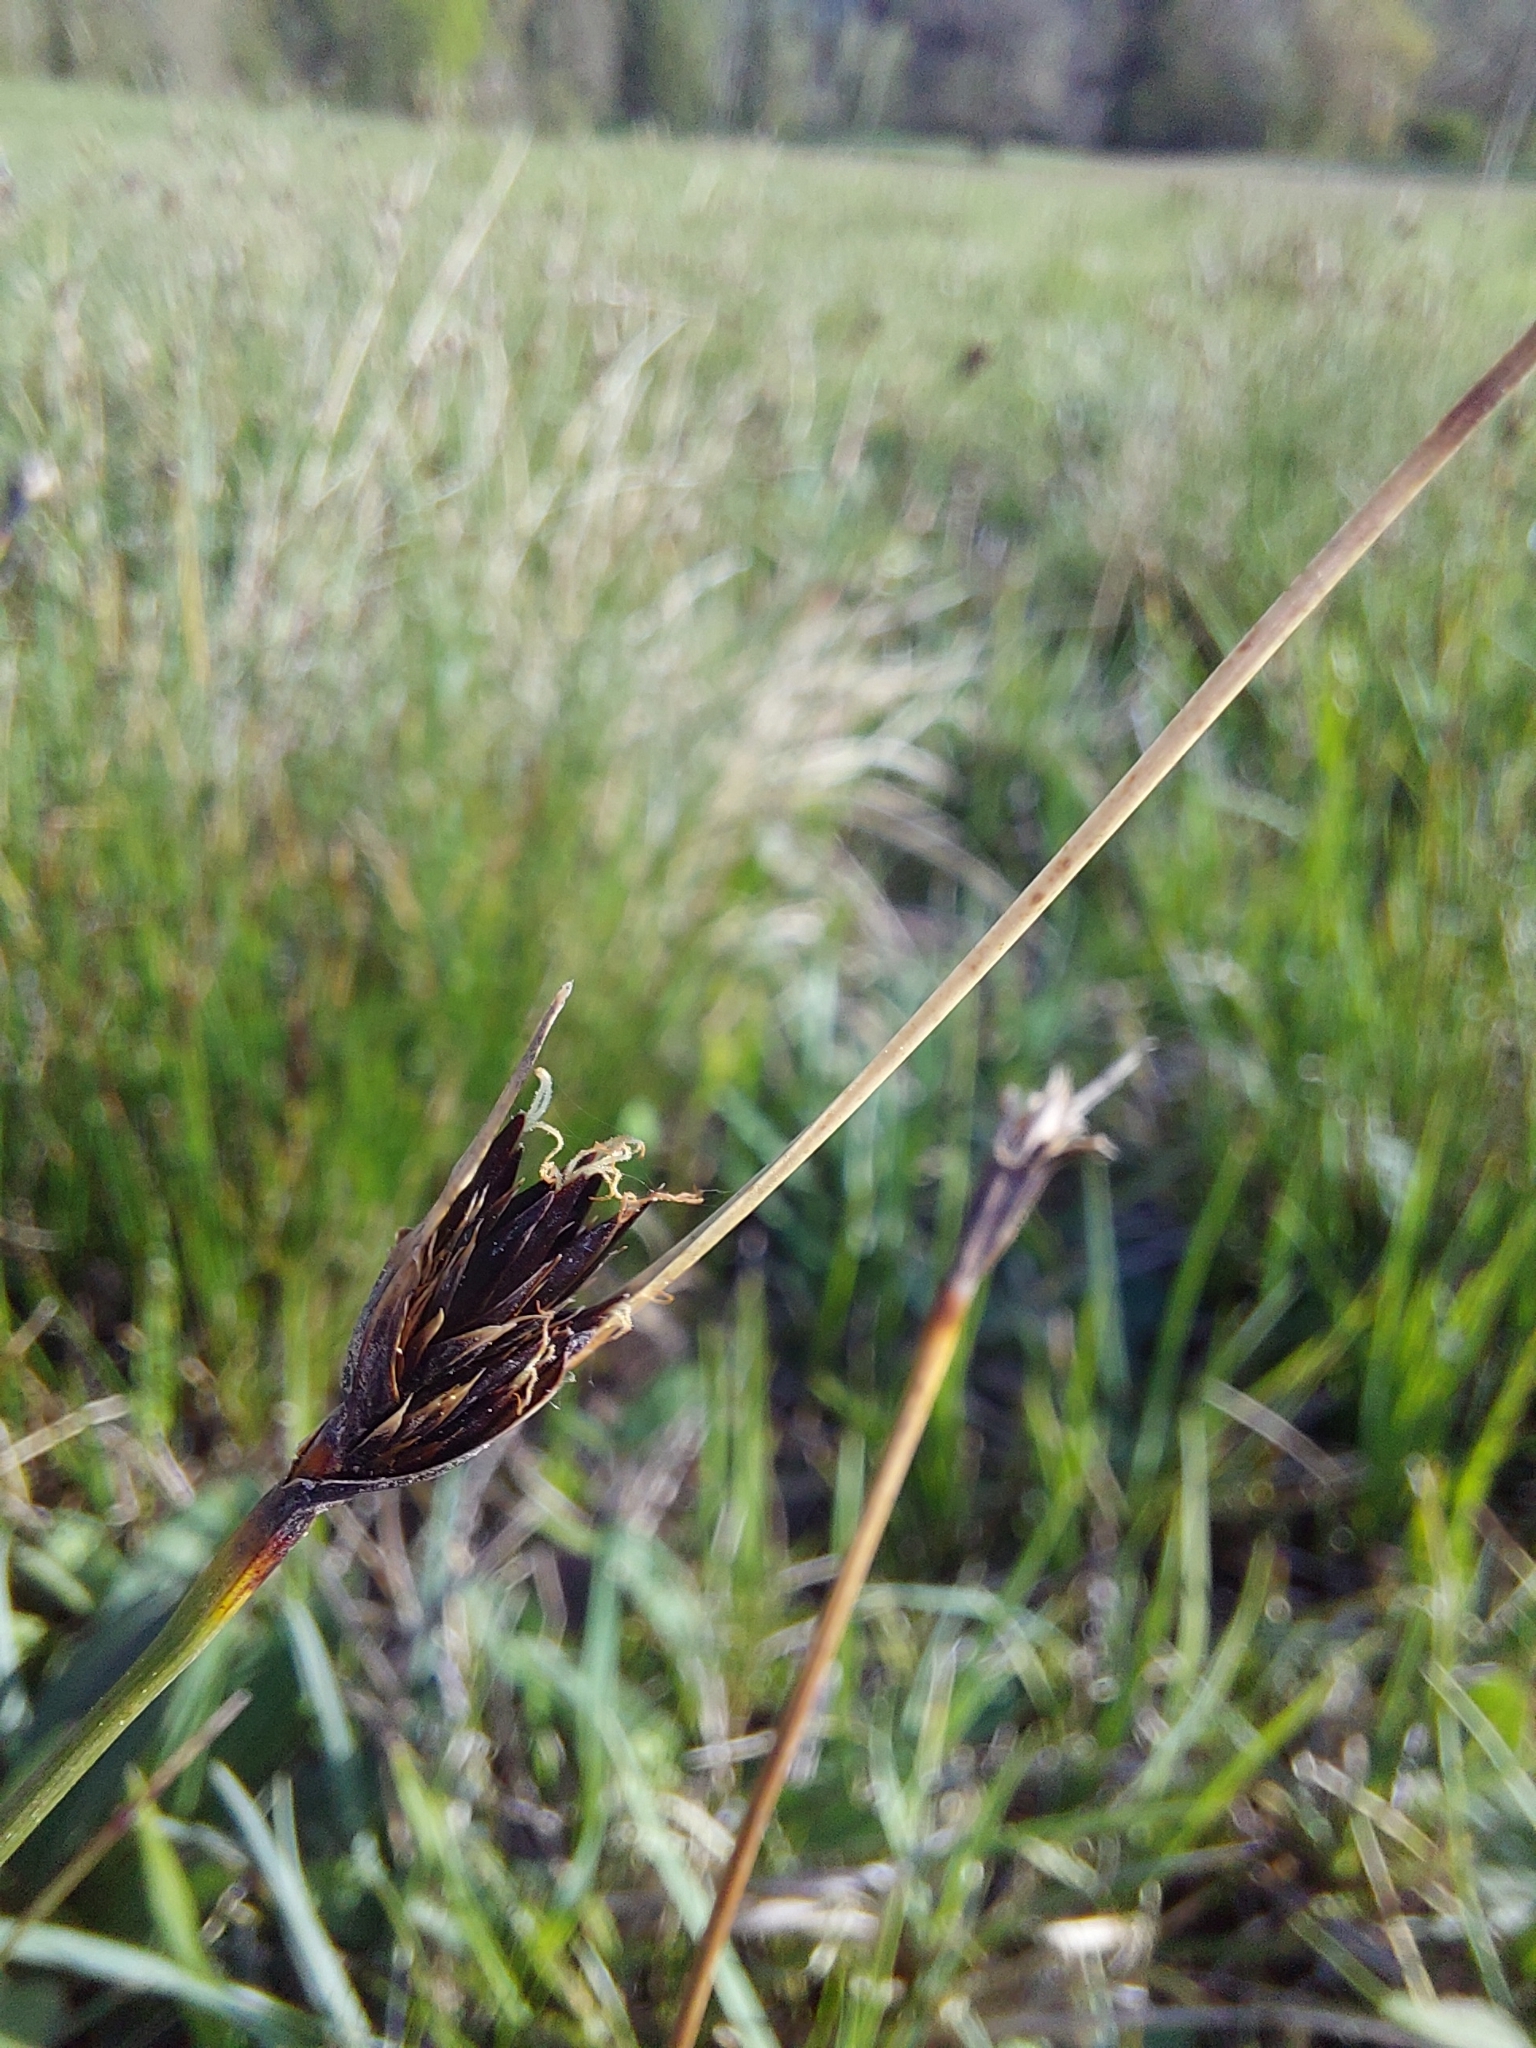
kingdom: Plantae
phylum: Tracheophyta
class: Liliopsida
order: Poales
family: Cyperaceae
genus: Schoenus
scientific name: Schoenus nigricans
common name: Black bog-rush
